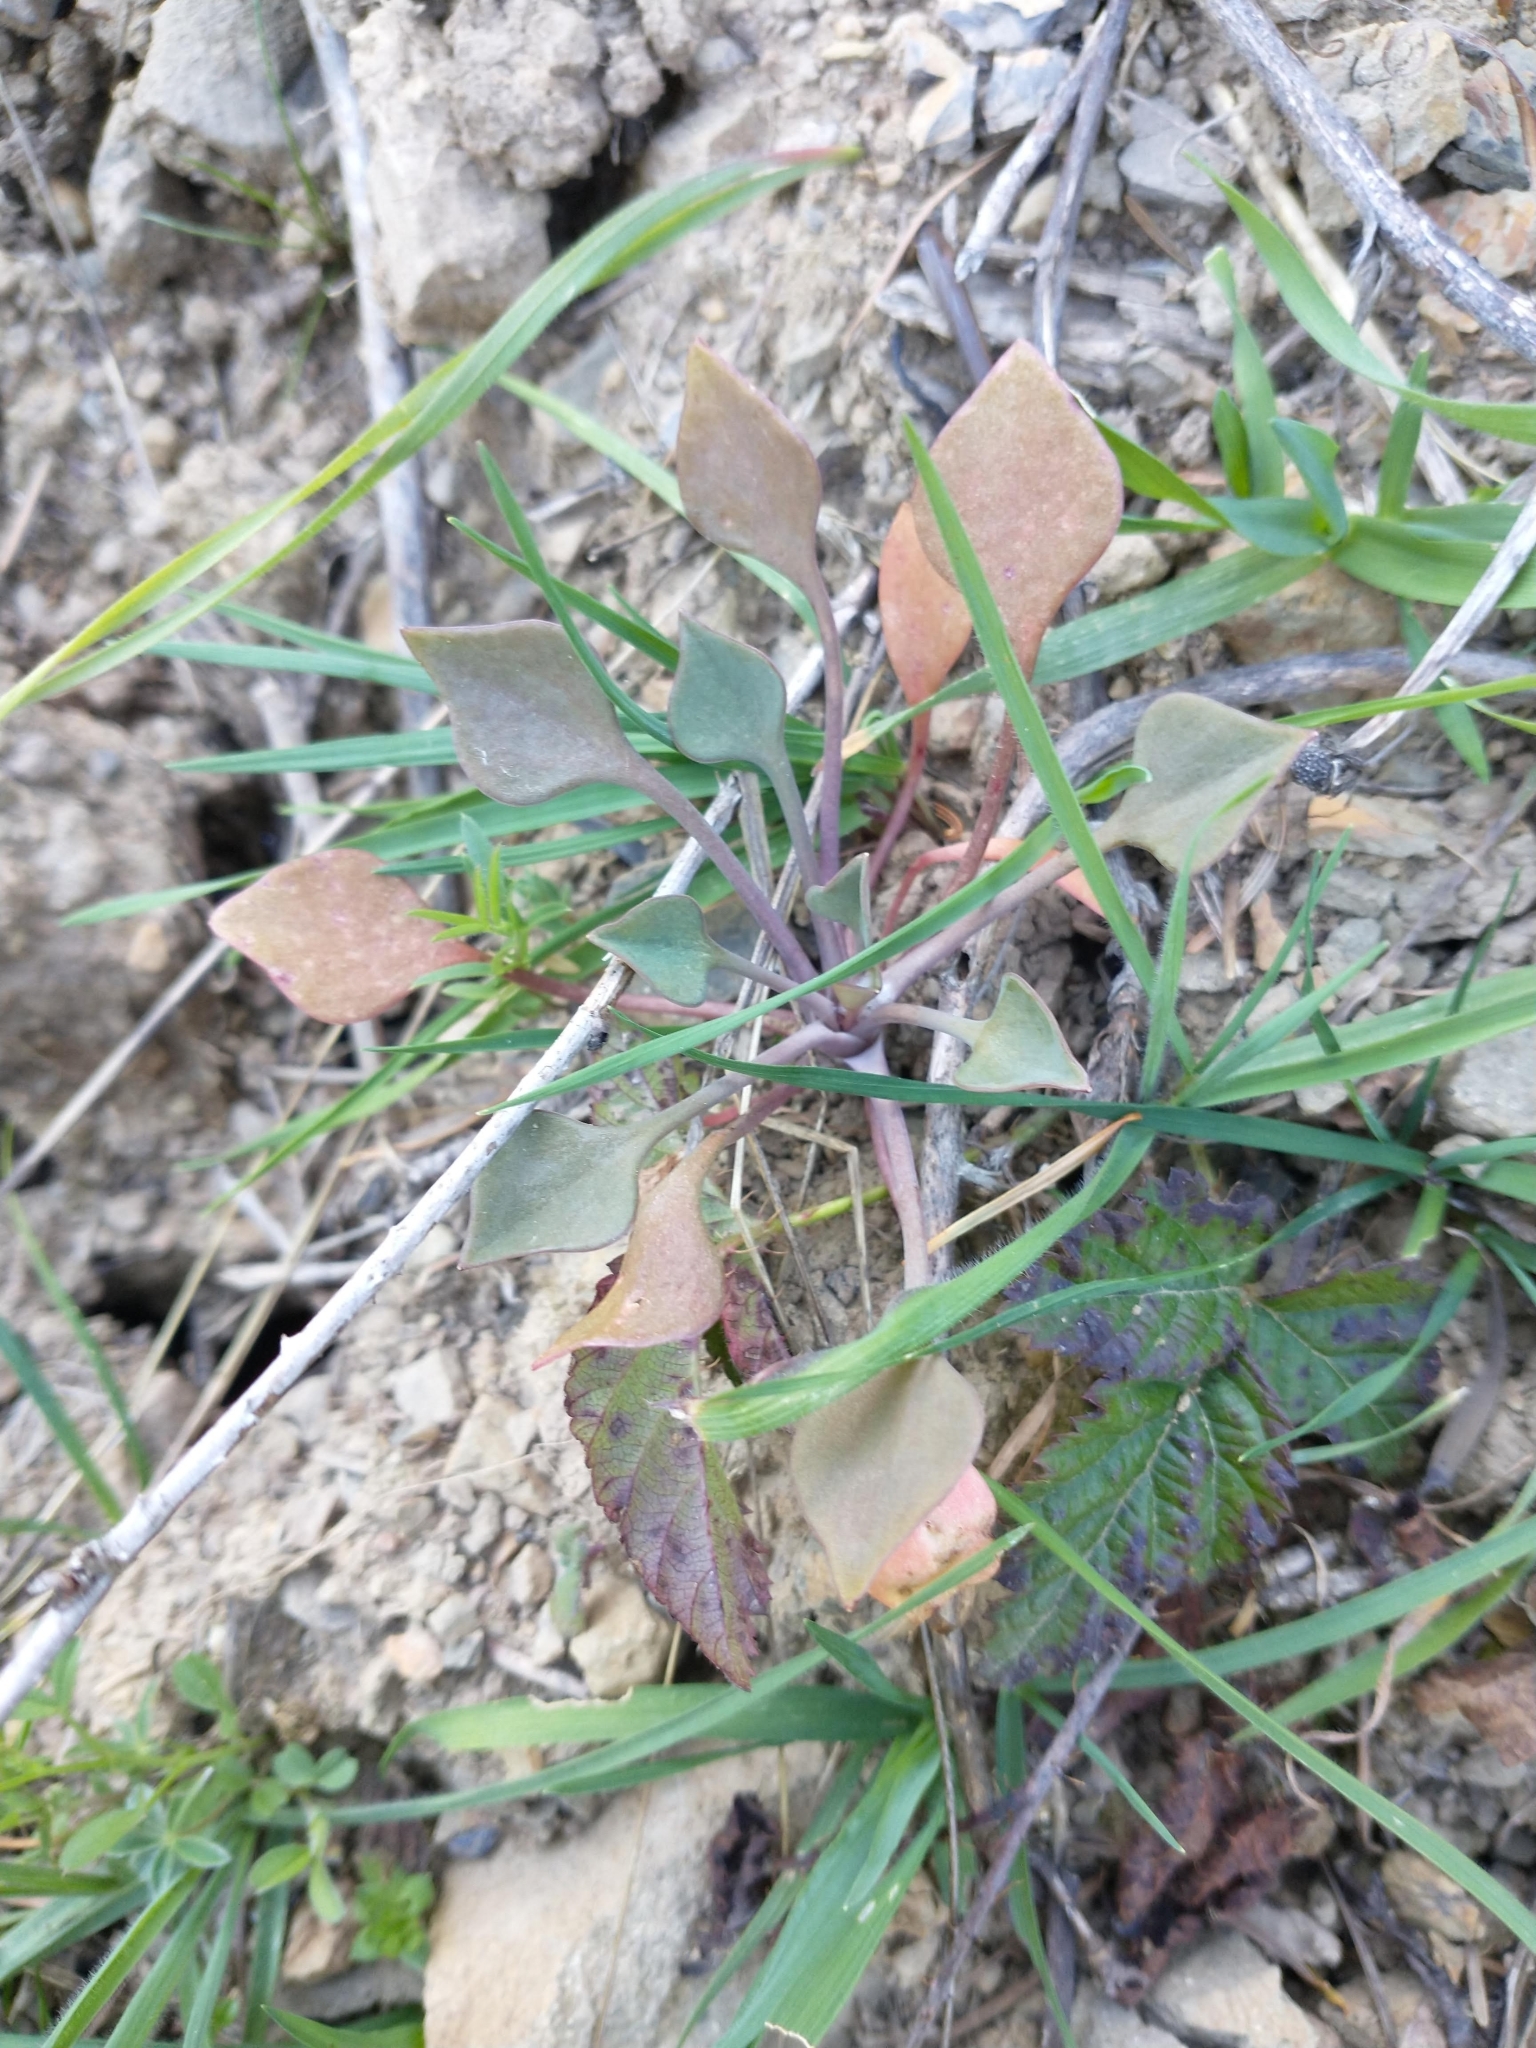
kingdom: Plantae
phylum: Tracheophyta
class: Magnoliopsida
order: Caryophyllales
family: Montiaceae
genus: Claytonia
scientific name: Claytonia rubra
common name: Erubescent miner's-lettuce
